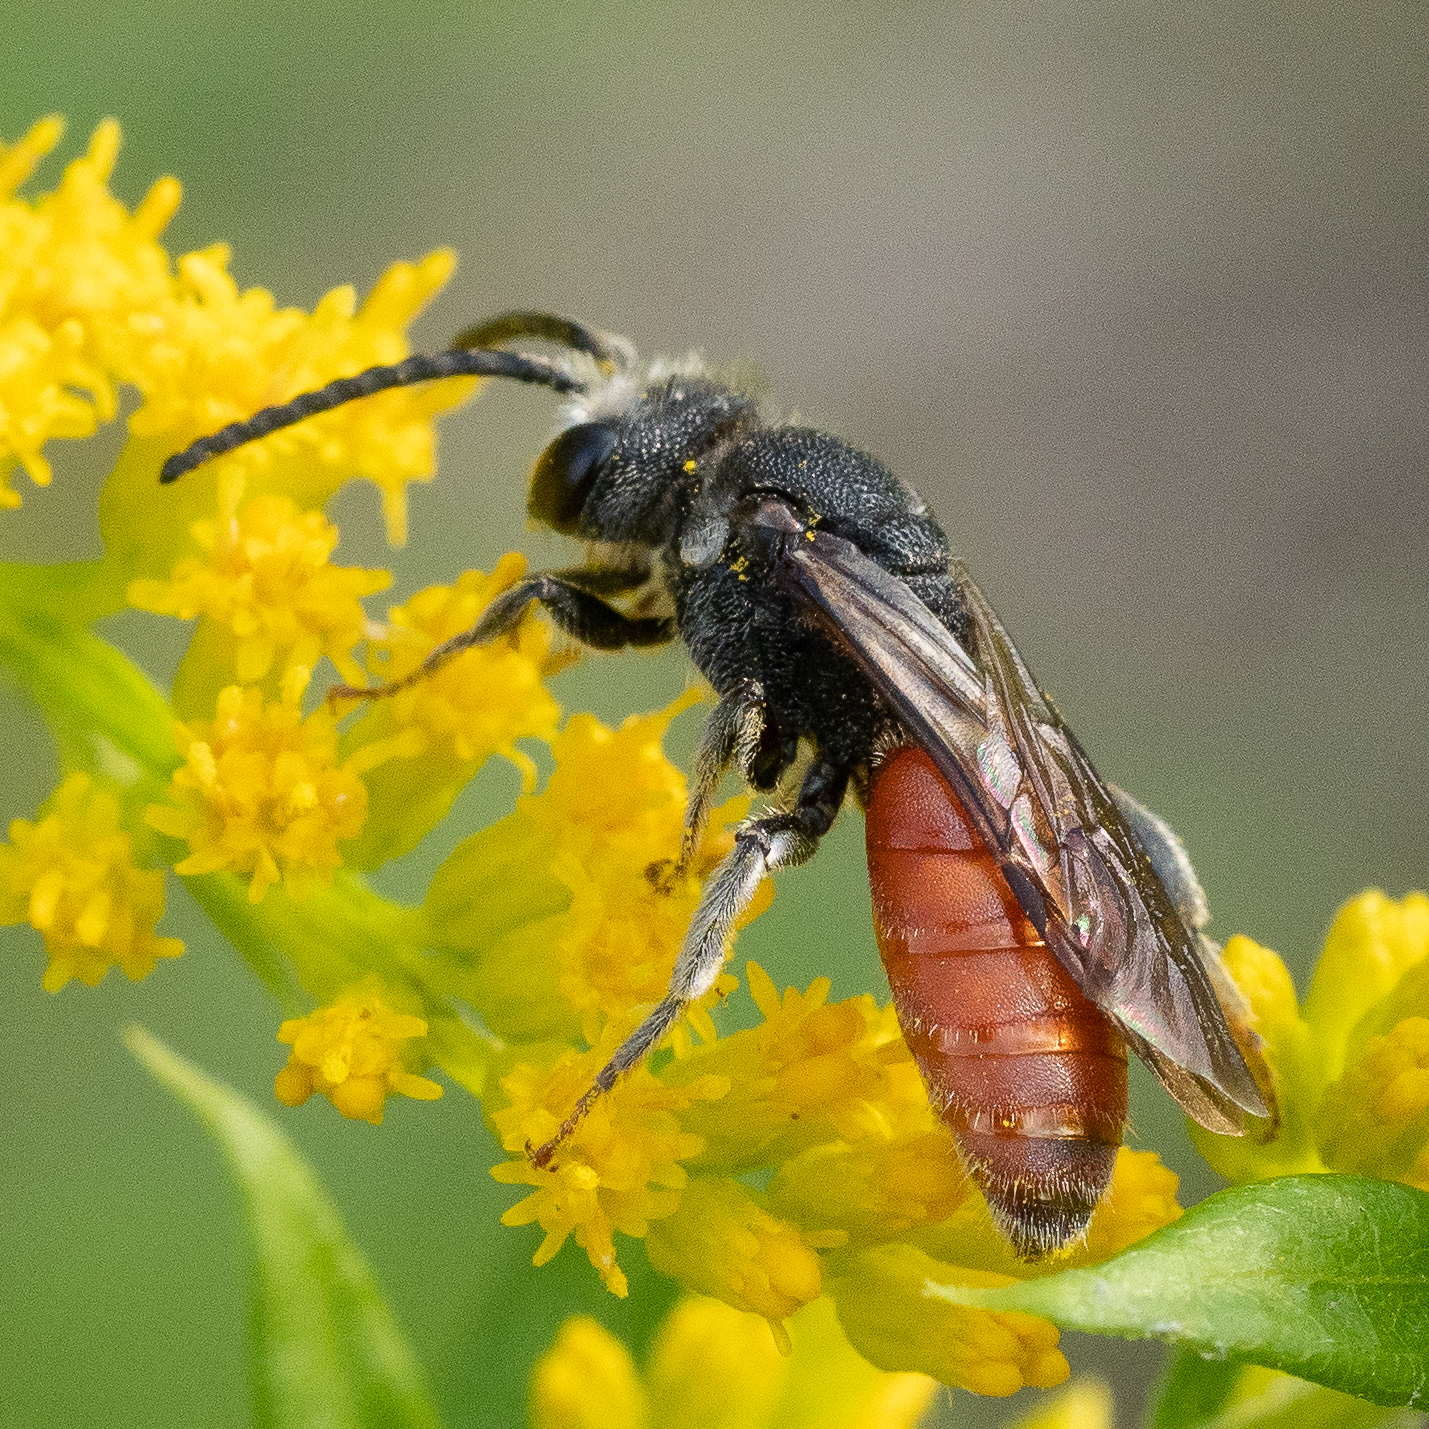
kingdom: Animalia
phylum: Arthropoda
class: Insecta
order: Hymenoptera
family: Halictidae
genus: Sphecodes
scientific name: Sphecodes albilabris
